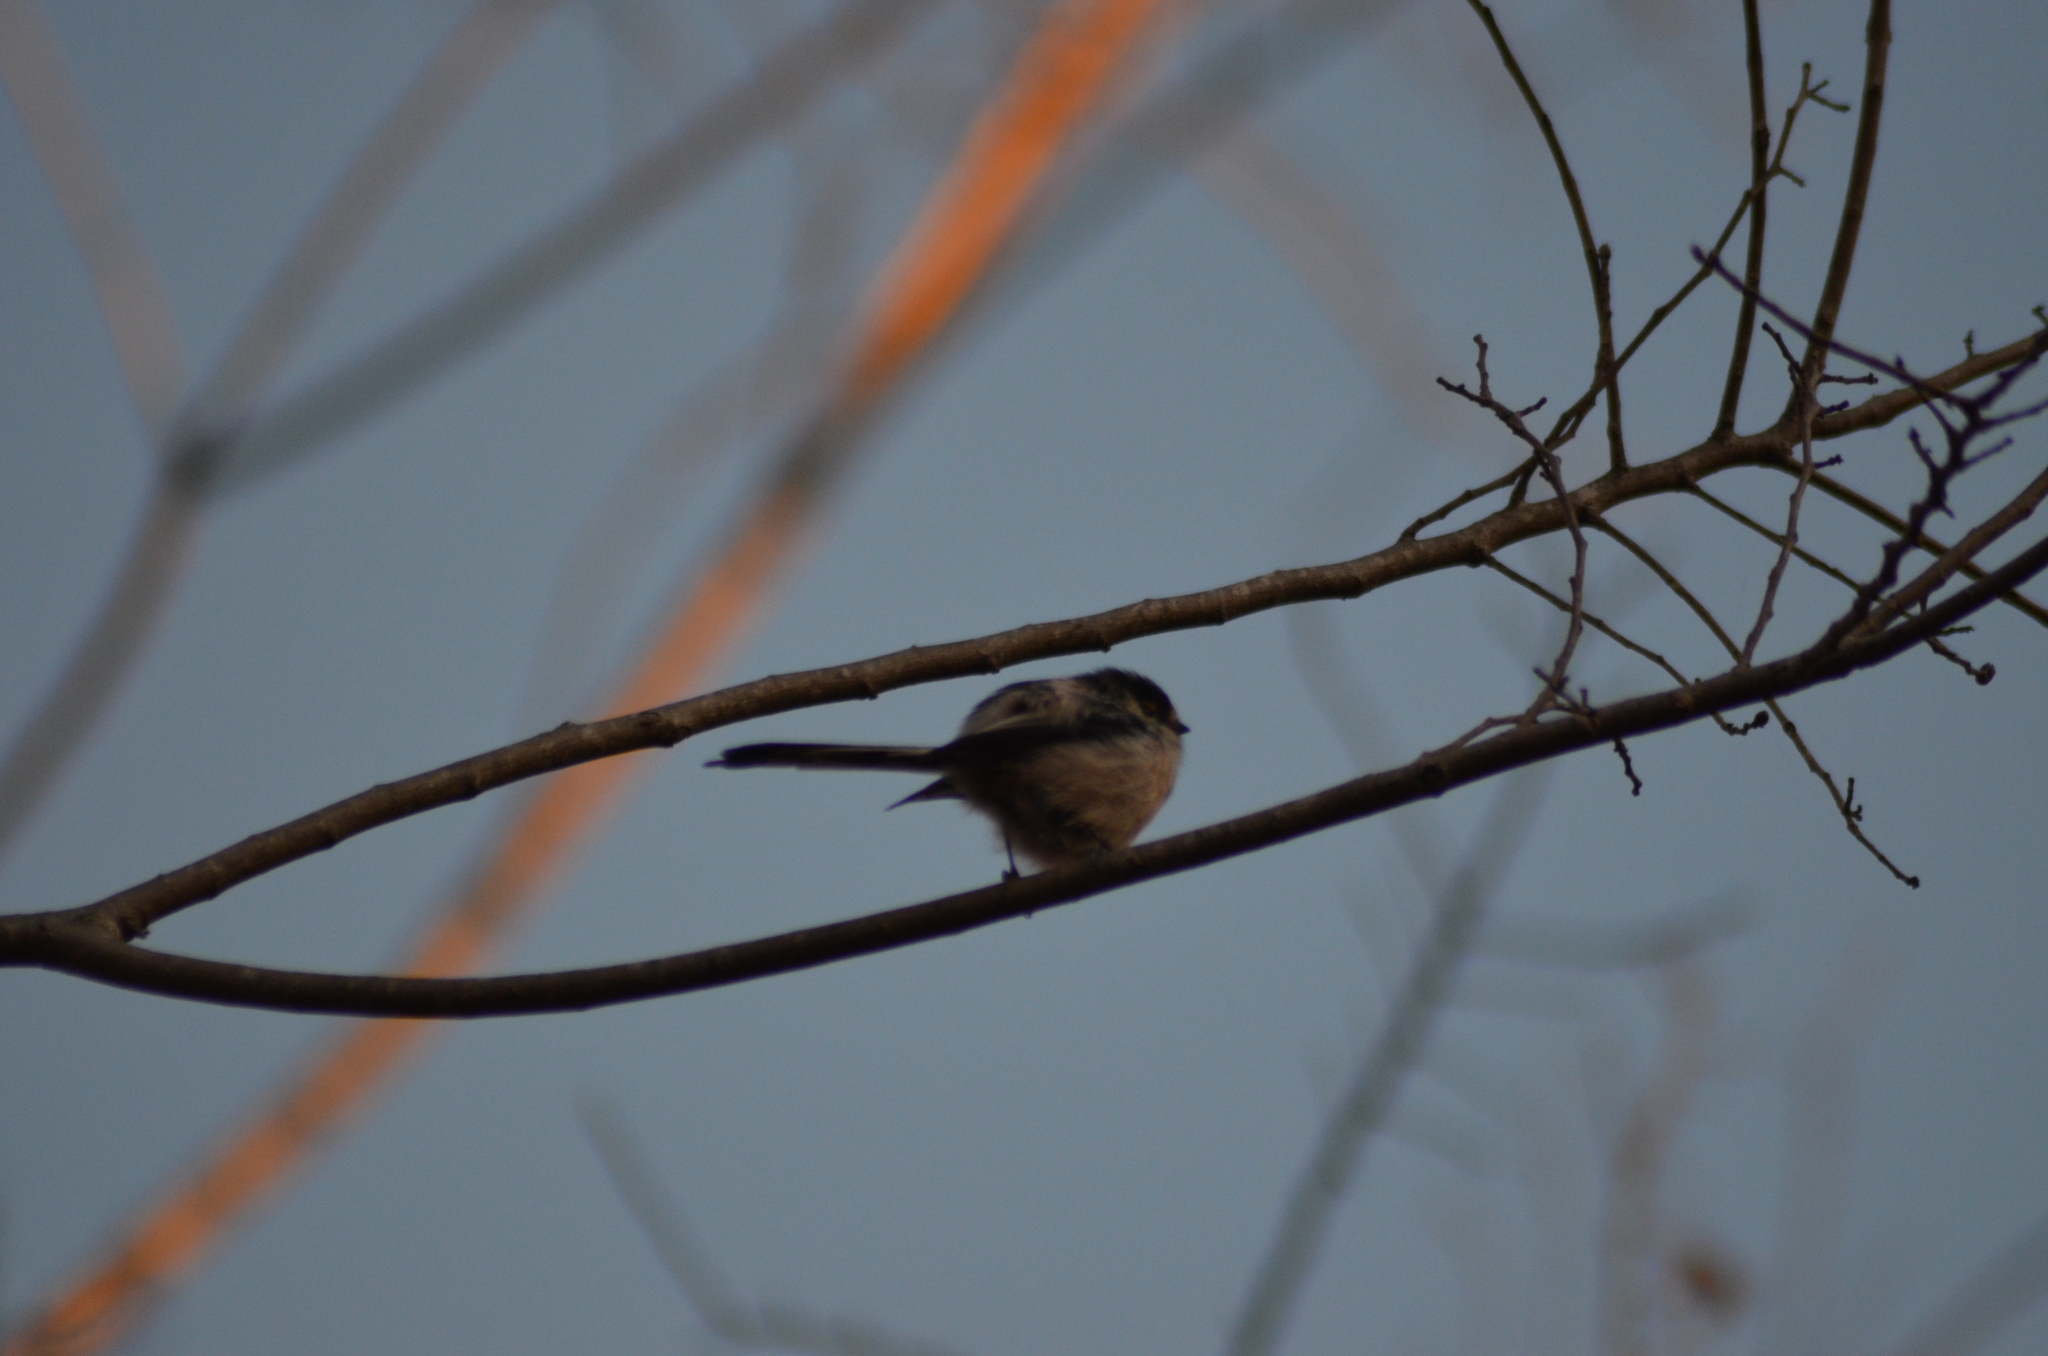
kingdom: Animalia
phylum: Chordata
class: Aves
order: Passeriformes
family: Aegithalidae
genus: Aegithalos
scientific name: Aegithalos caudatus
